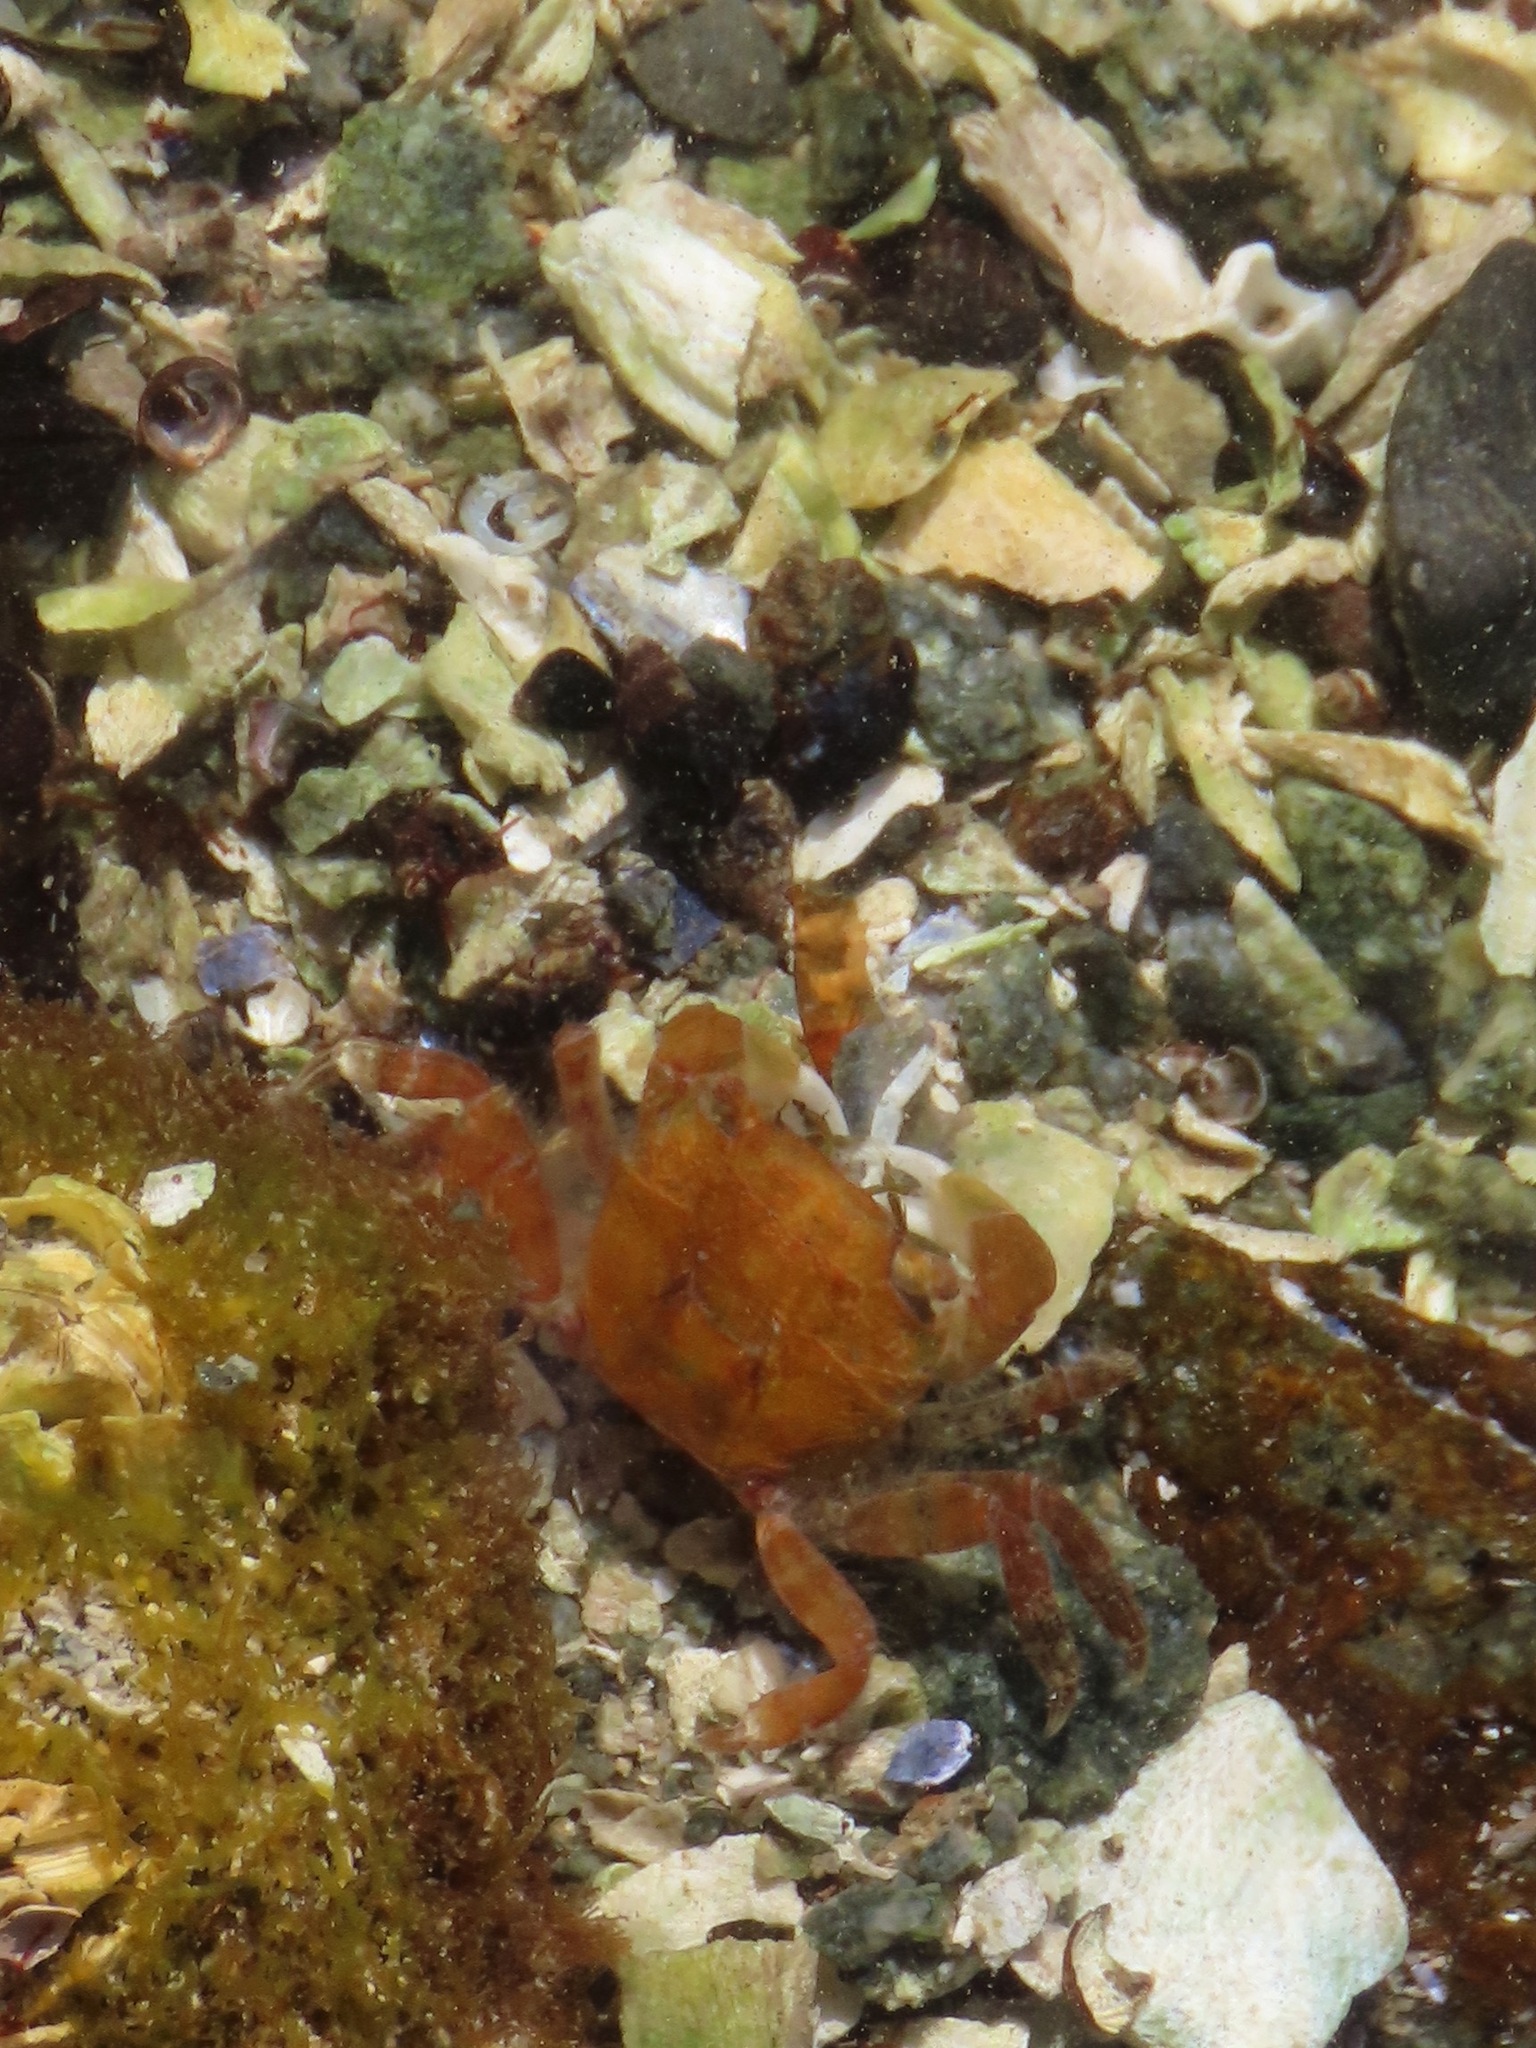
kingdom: Animalia
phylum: Arthropoda
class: Malacostraca
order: Decapoda
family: Varunidae
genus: Hemigrapsus
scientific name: Hemigrapsus oregonensis
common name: Yellow shore crab
